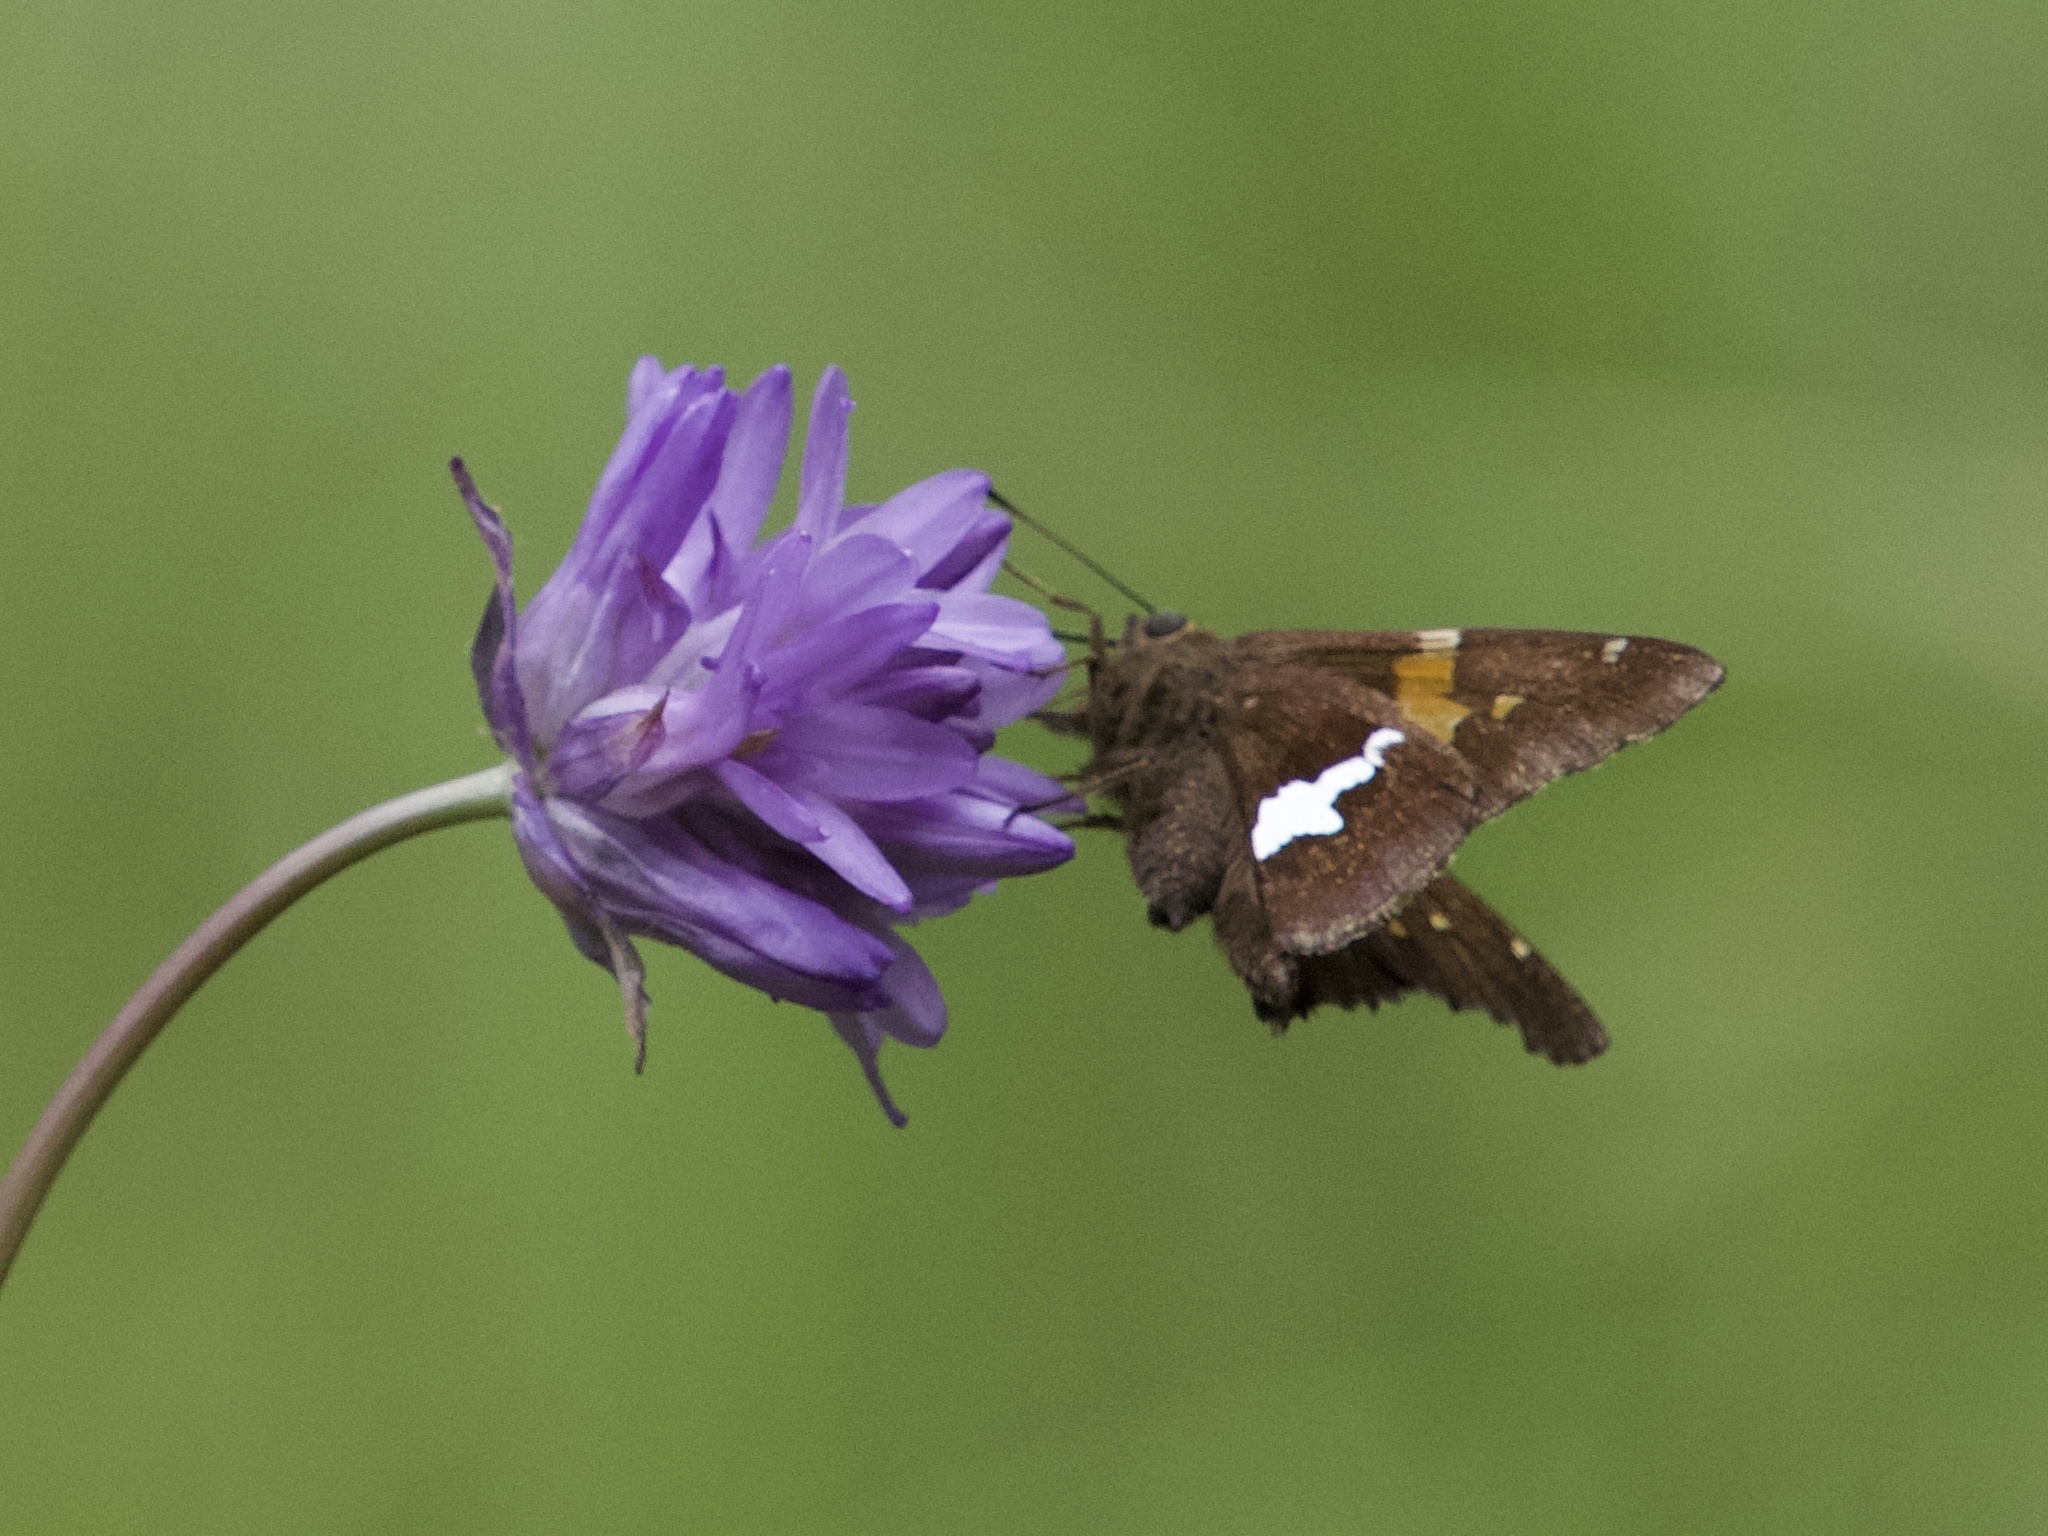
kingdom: Animalia
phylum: Arthropoda
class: Insecta
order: Lepidoptera
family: Hesperiidae
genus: Epargyreus
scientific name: Epargyreus clarus
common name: Silver-spotted skipper
